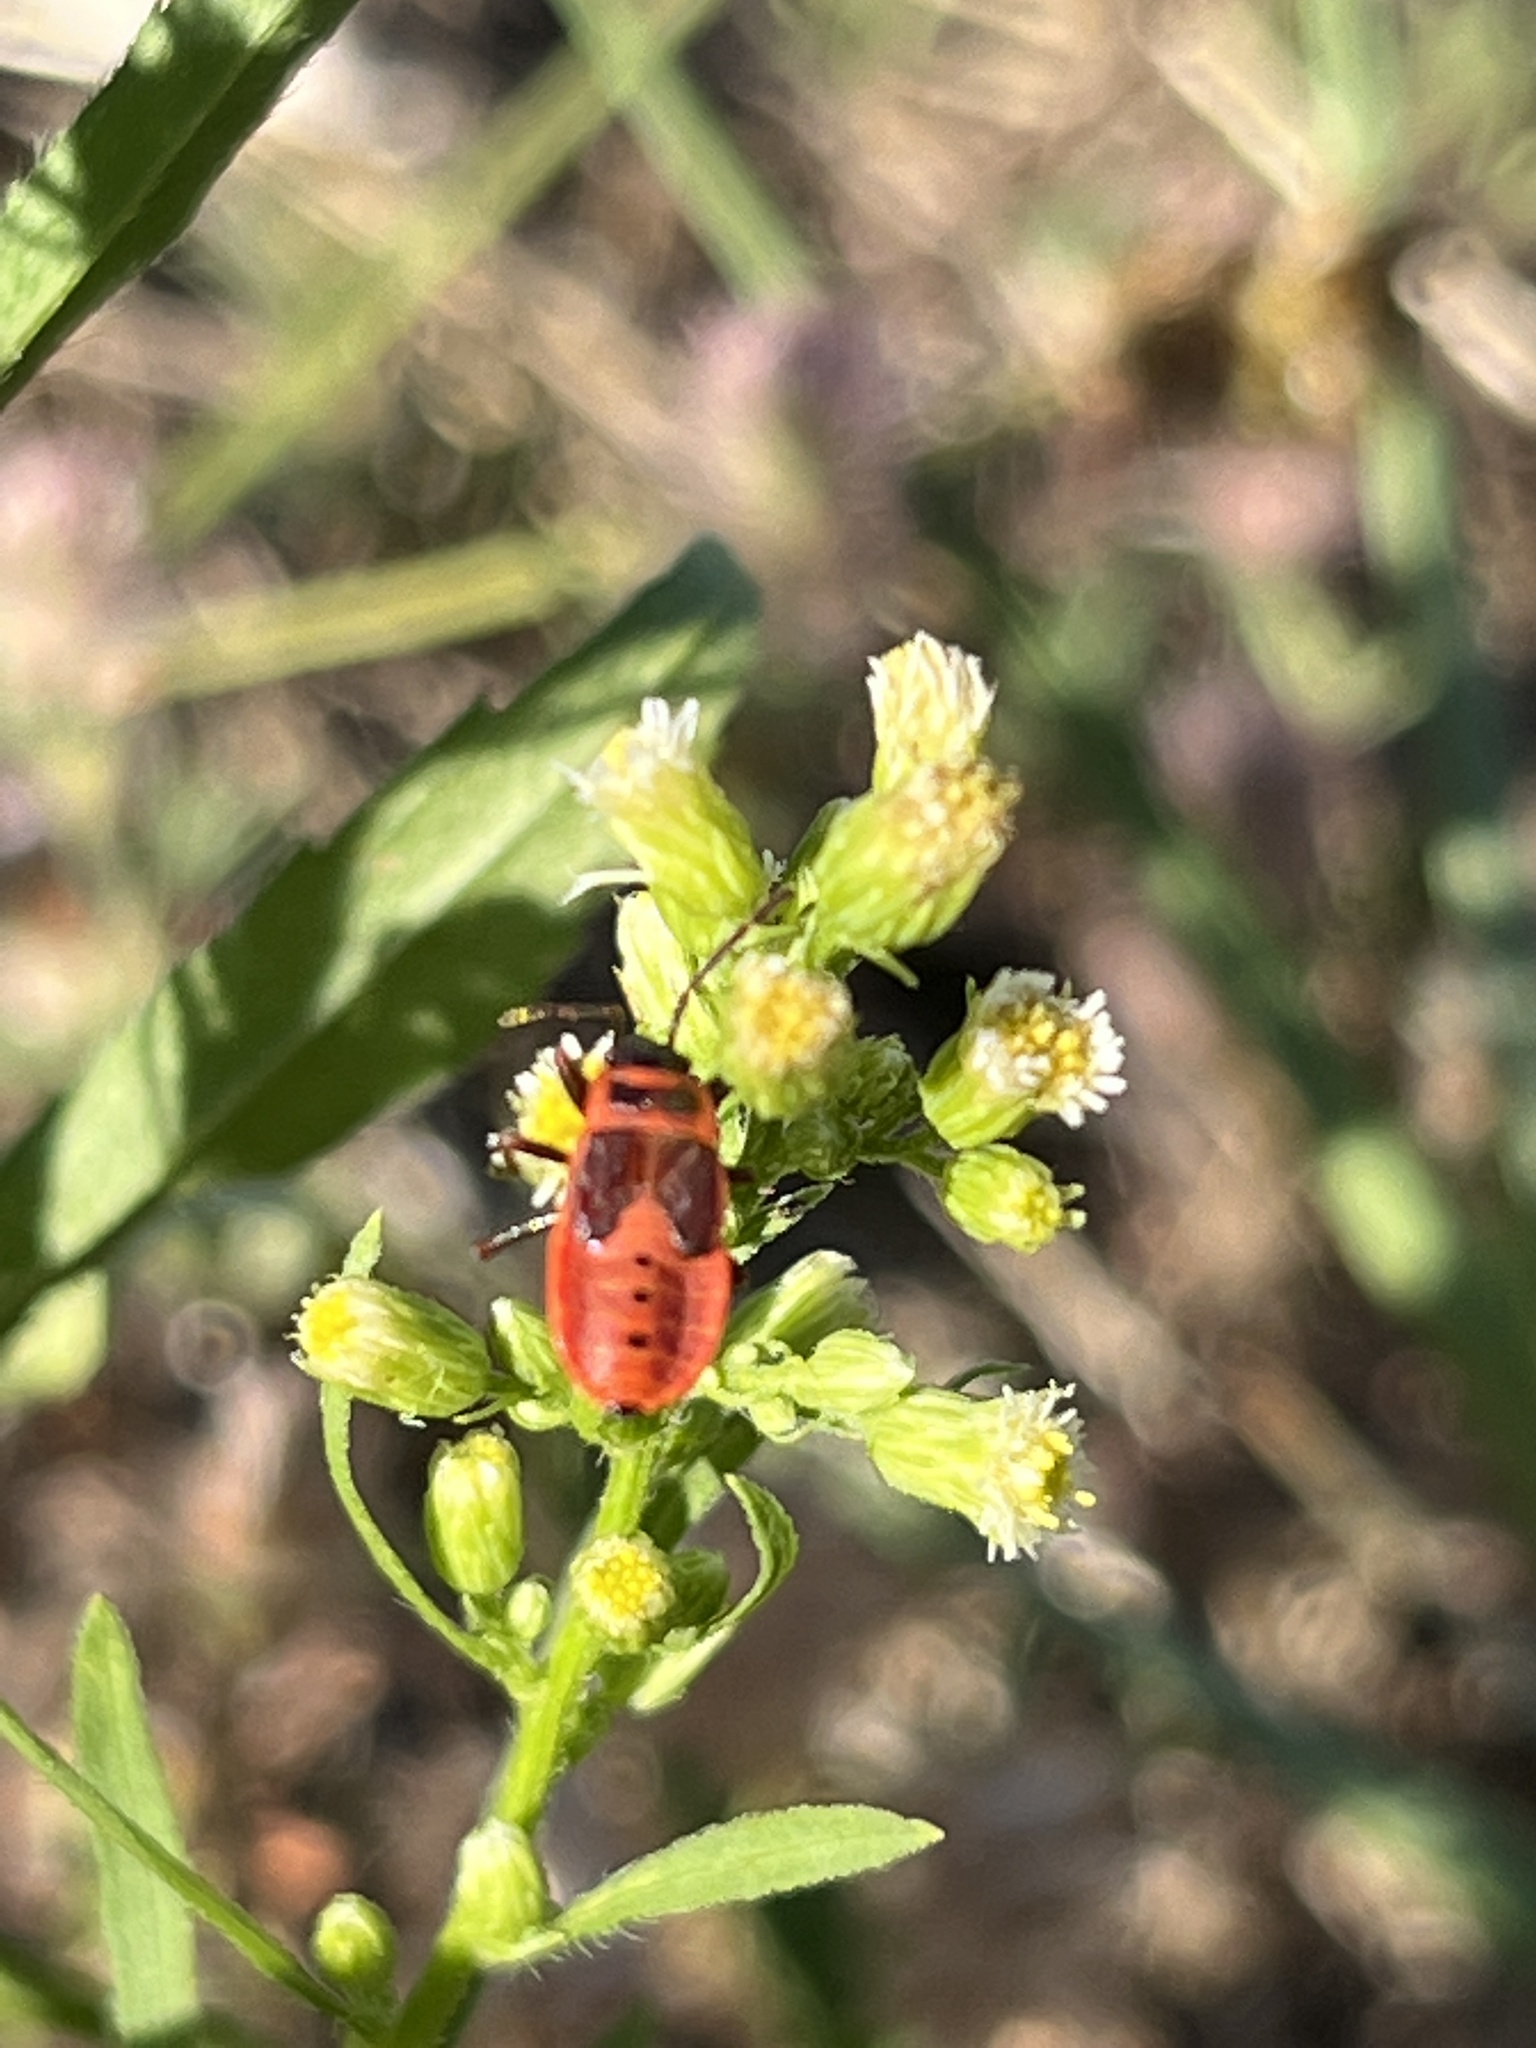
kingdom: Animalia
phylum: Arthropoda
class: Insecta
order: Hemiptera
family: Pyrrhocoridae
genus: Pyrrhocoris
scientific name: Pyrrhocoris apterus
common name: Firebug
